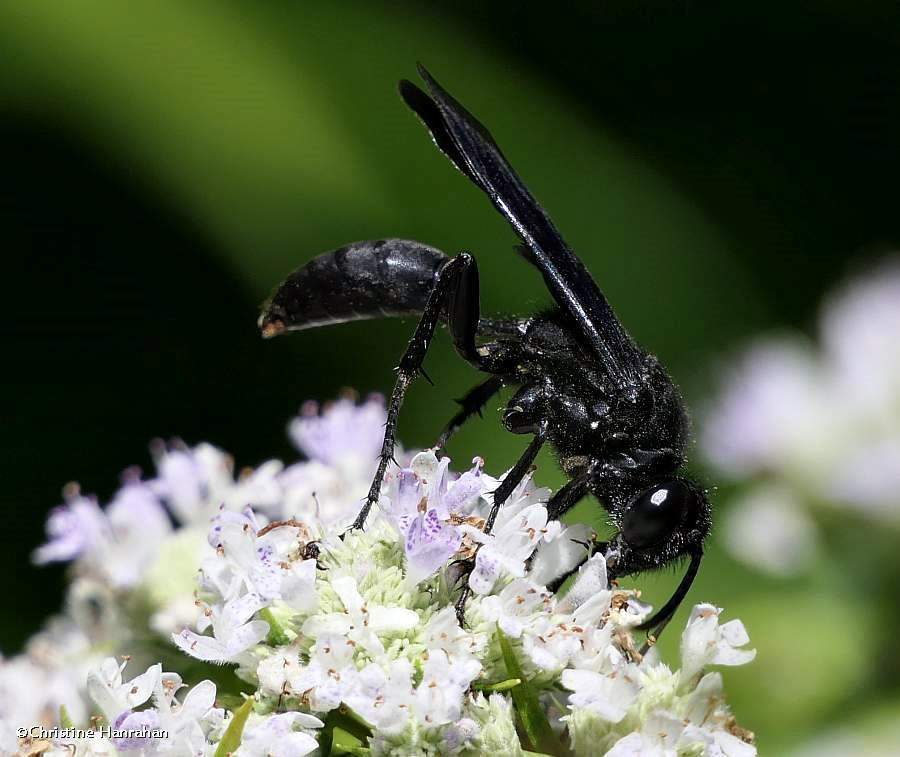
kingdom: Animalia
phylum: Arthropoda
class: Insecta
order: Hymenoptera
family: Sphecidae
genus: Sphex
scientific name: Sphex pensylvanicus
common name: Great black digger wasp
